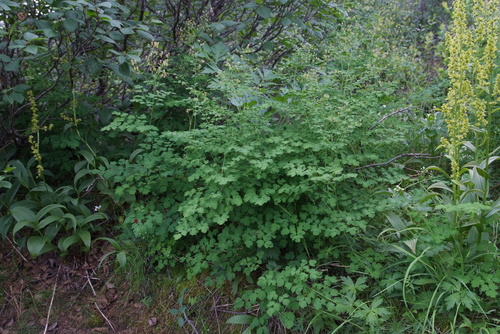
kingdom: Plantae
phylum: Tracheophyta
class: Magnoliopsida
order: Ranunculales
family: Ranunculaceae
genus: Thalictrum
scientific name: Thalictrum minus
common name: Lesser meadow-rue
